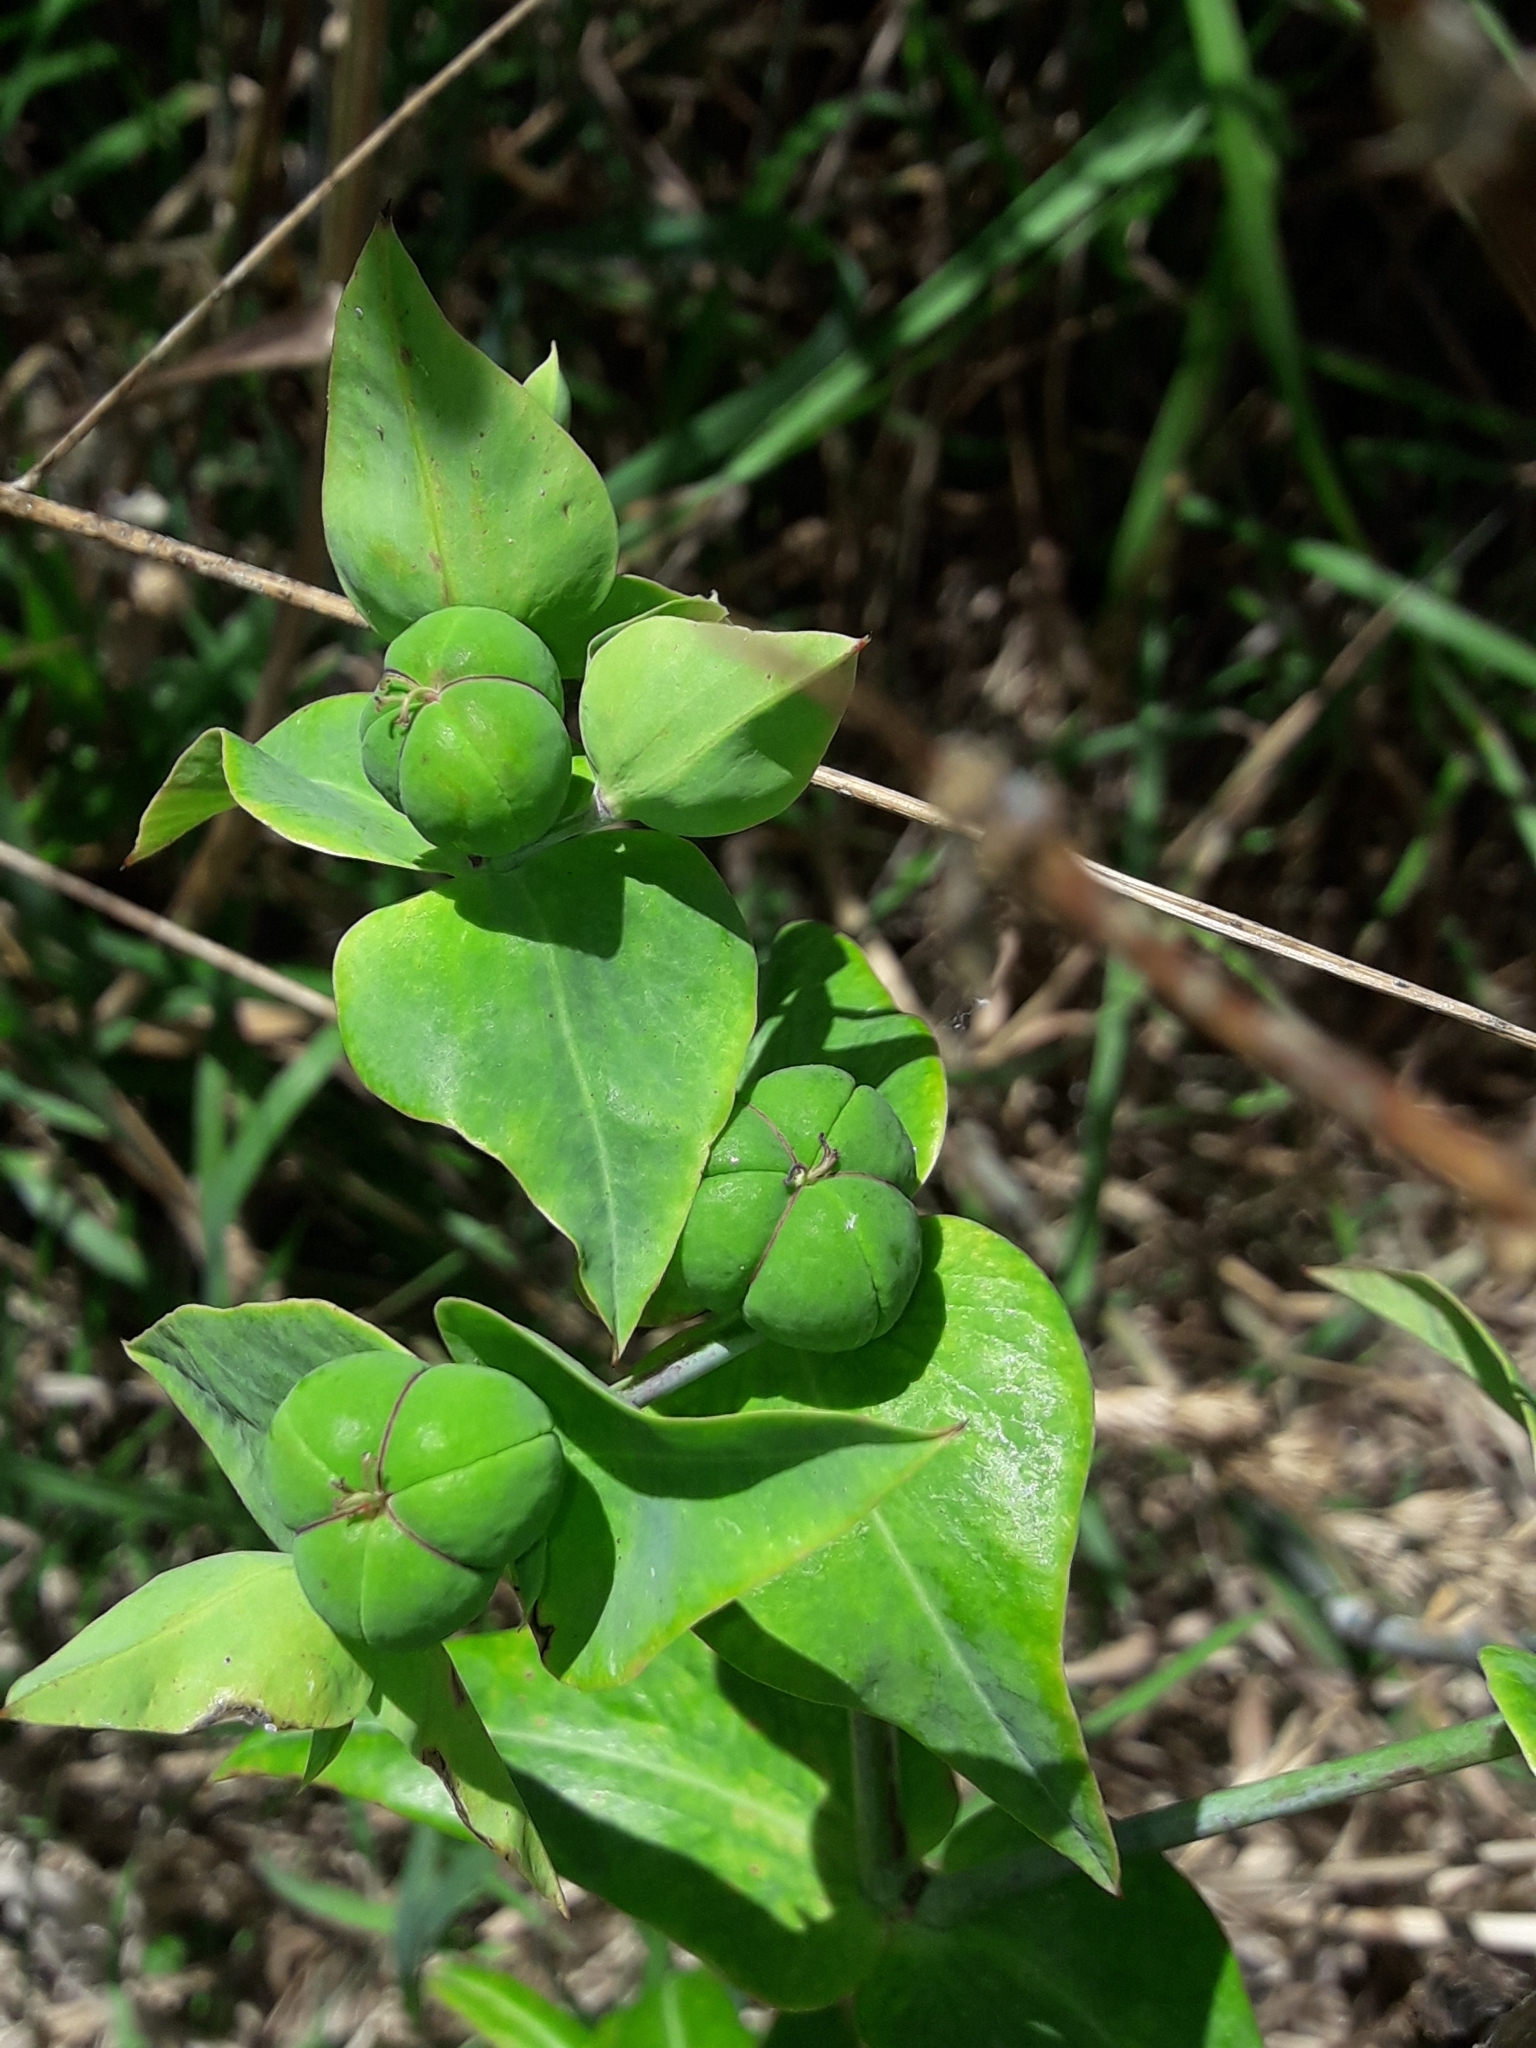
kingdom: Plantae
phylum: Tracheophyta
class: Magnoliopsida
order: Malpighiales
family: Euphorbiaceae
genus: Euphorbia
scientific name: Euphorbia lathyris
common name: Caper spurge
